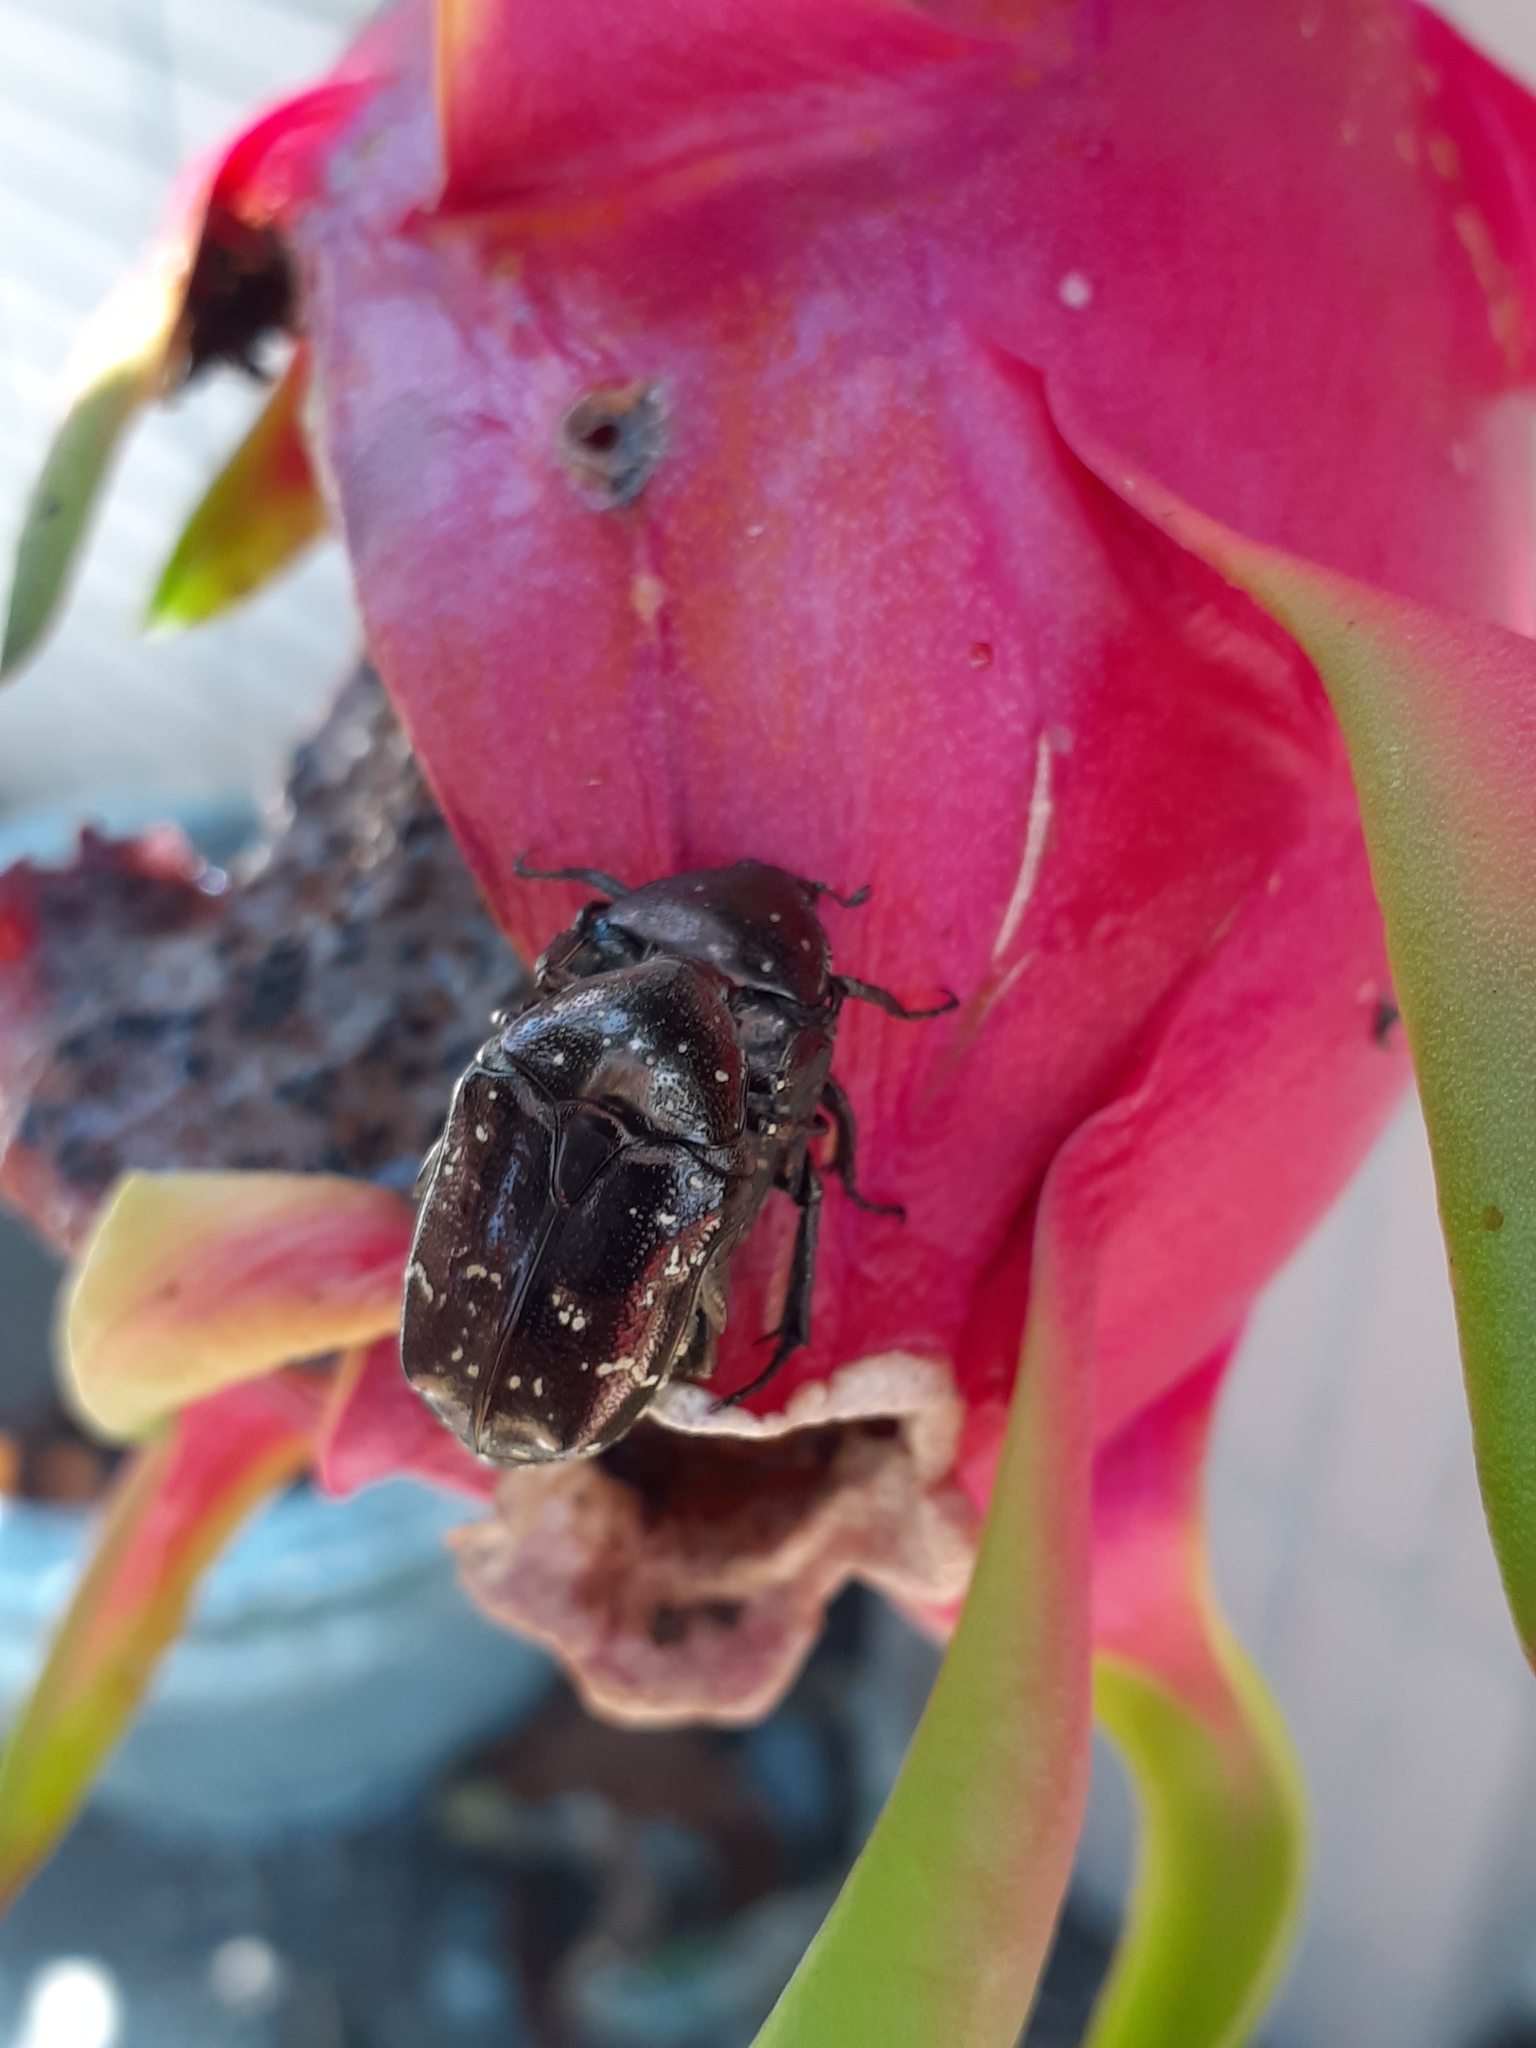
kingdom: Animalia
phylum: Arthropoda
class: Insecta
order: Coleoptera
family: Scarabaeidae
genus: Protaetia
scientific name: Protaetia orientalis
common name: Oriental flower beetle
